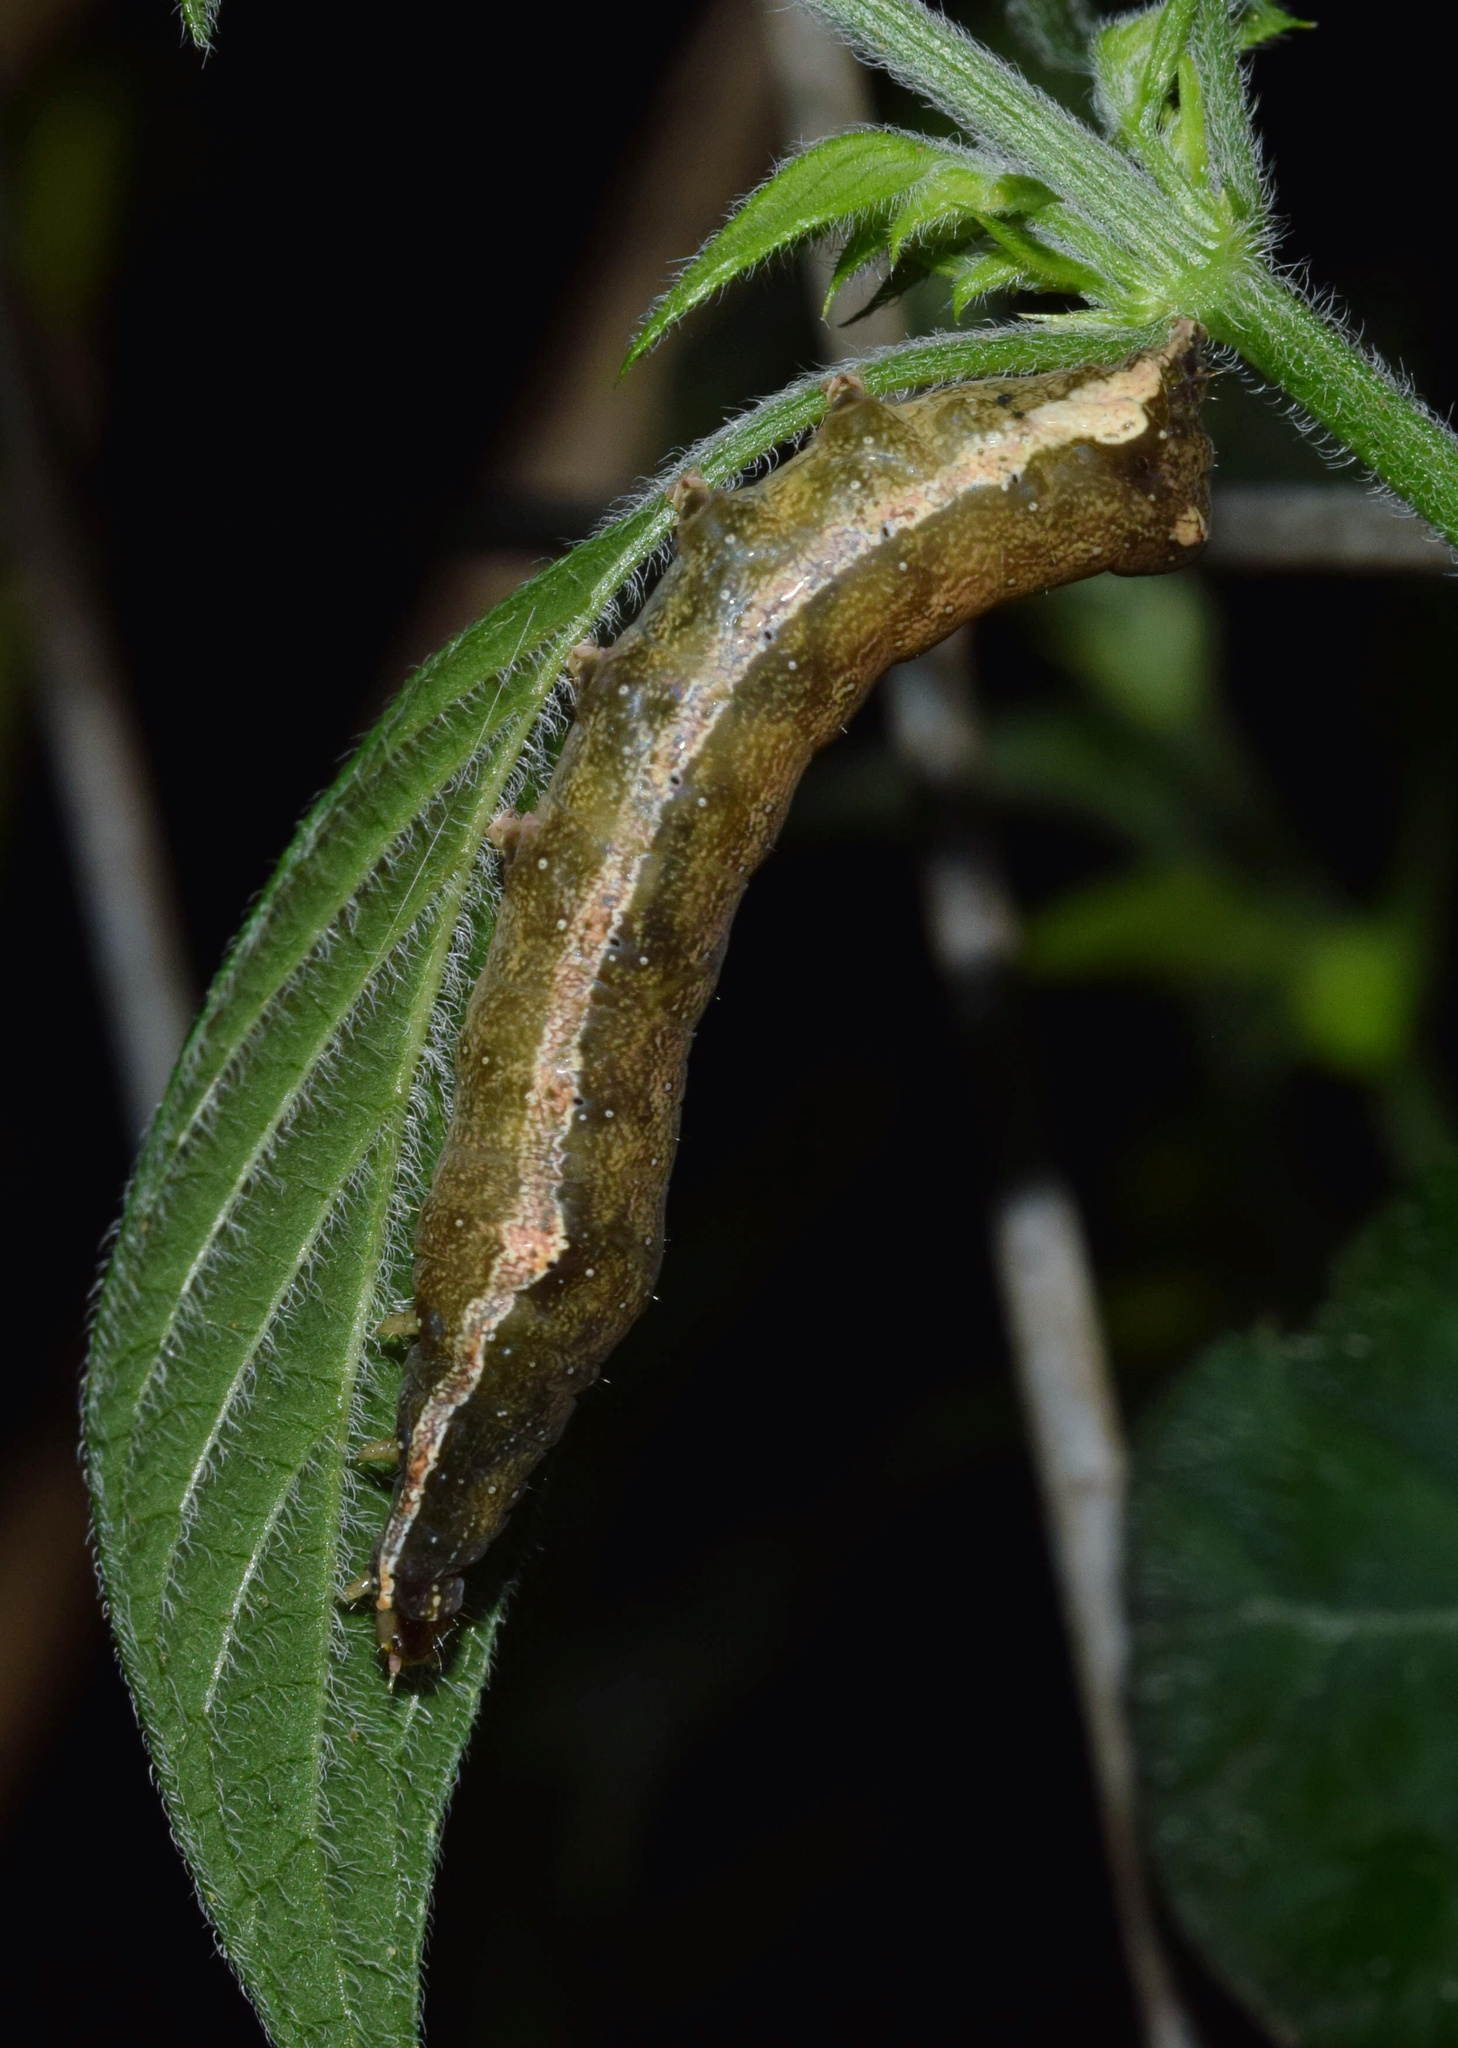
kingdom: Plantae
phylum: Tracheophyta
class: Magnoliopsida
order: Lamiales
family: Acanthaceae
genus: Asystasia
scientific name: Asystasia intrusa
